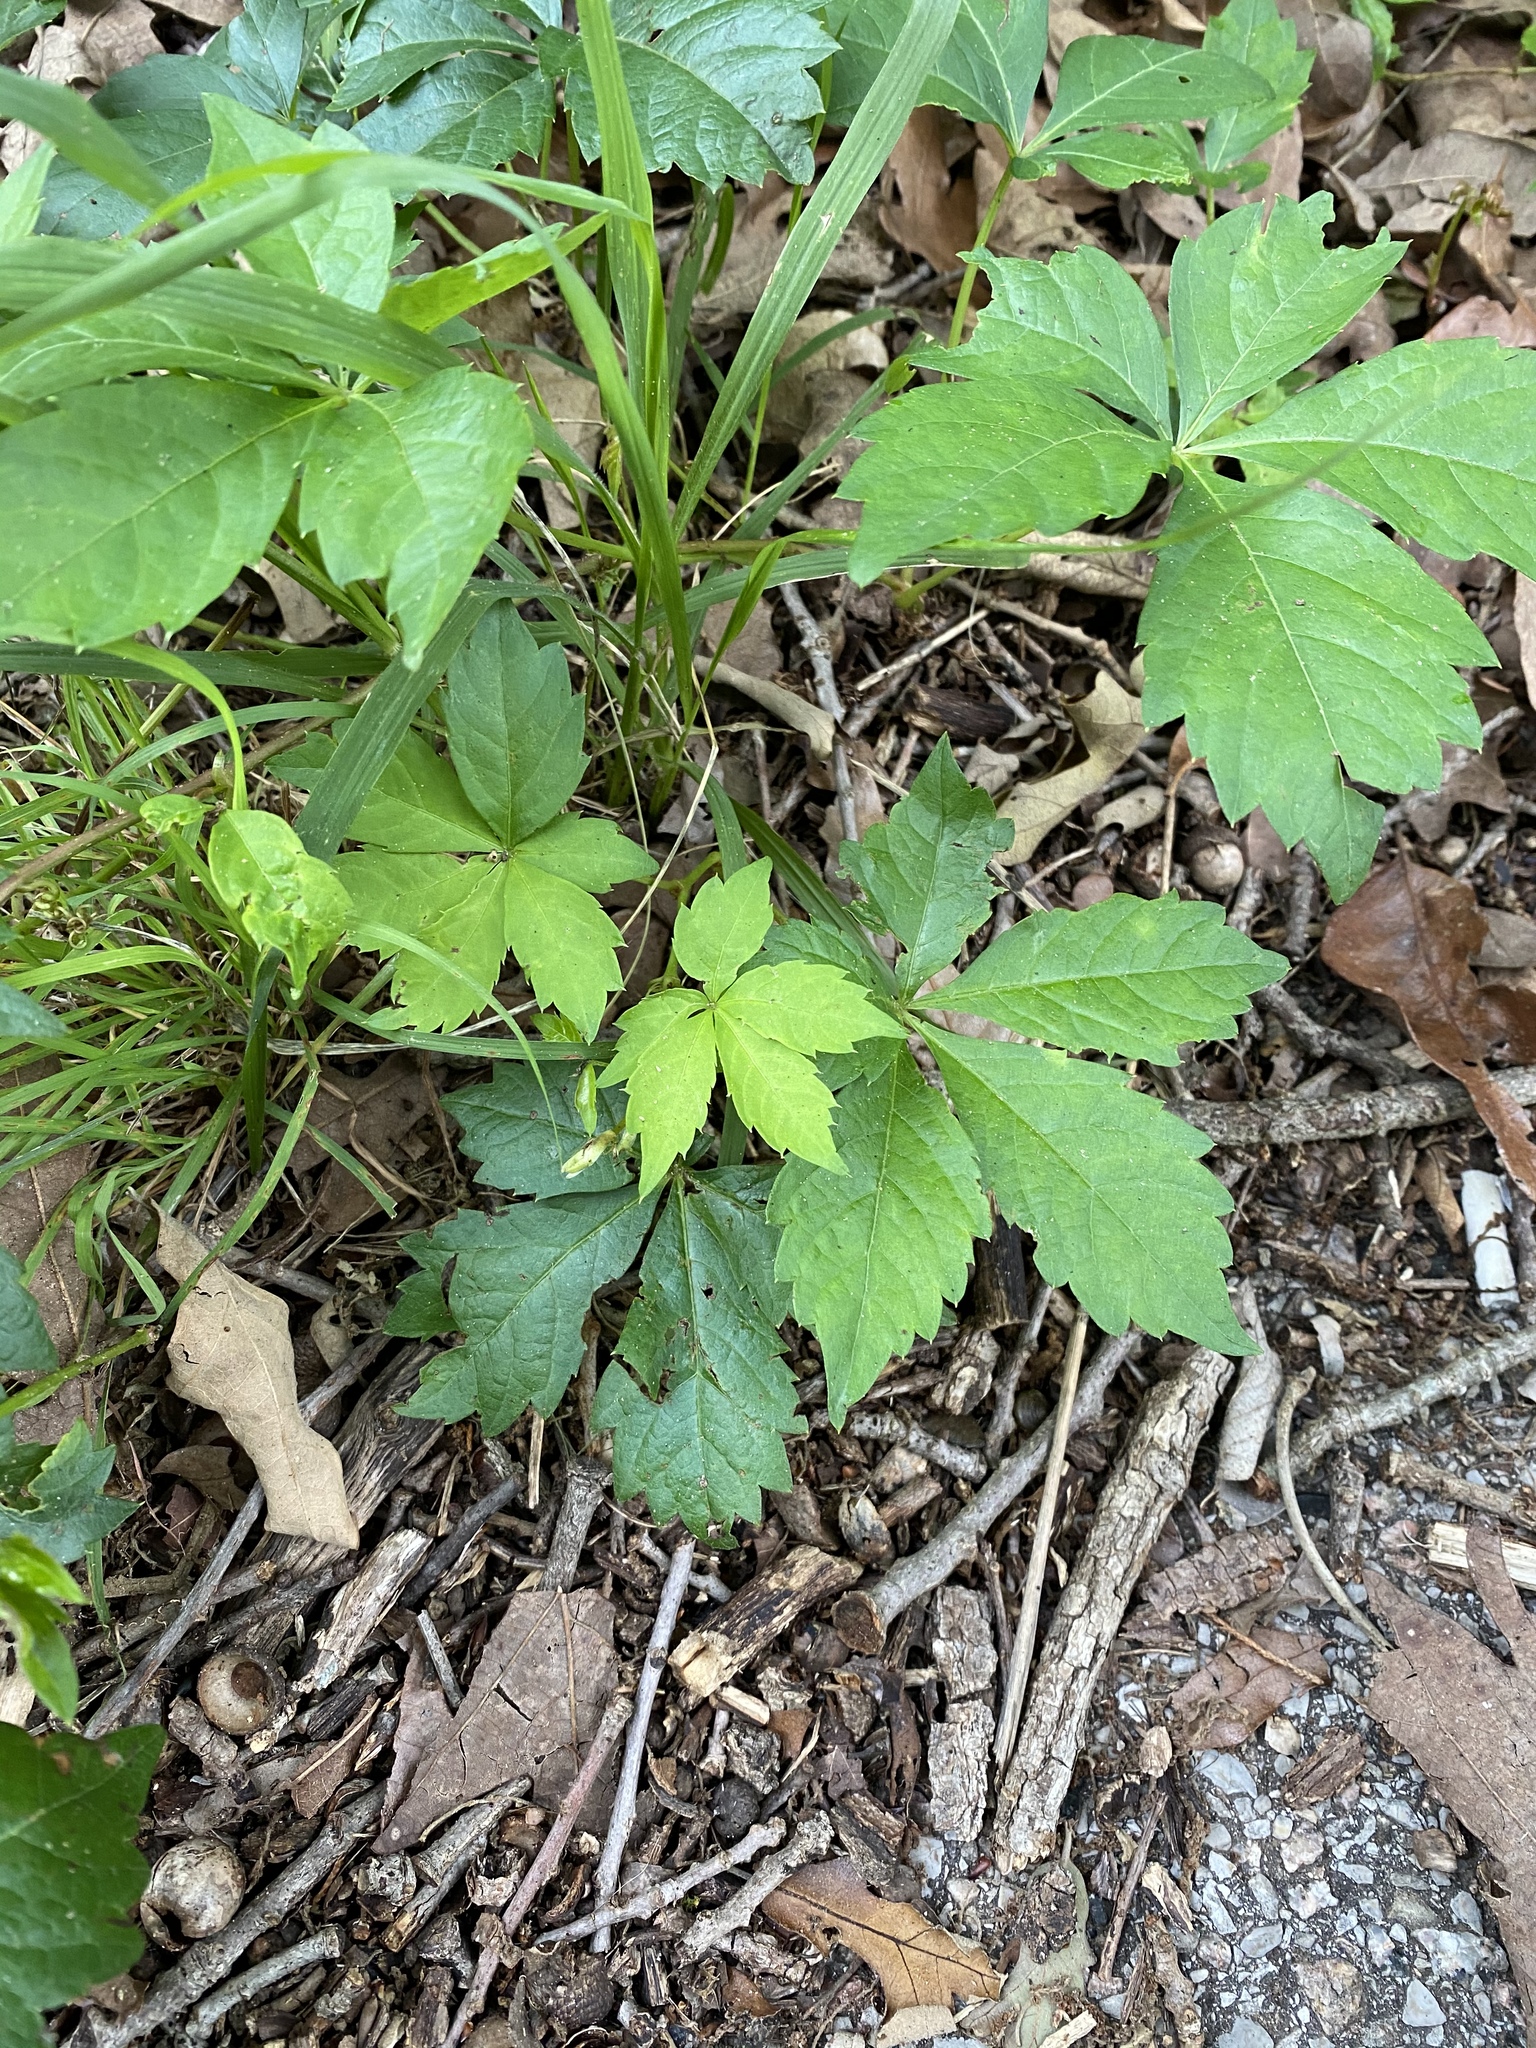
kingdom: Plantae
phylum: Tracheophyta
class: Magnoliopsida
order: Vitales
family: Vitaceae
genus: Parthenocissus
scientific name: Parthenocissus quinquefolia
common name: Virginia-creeper
